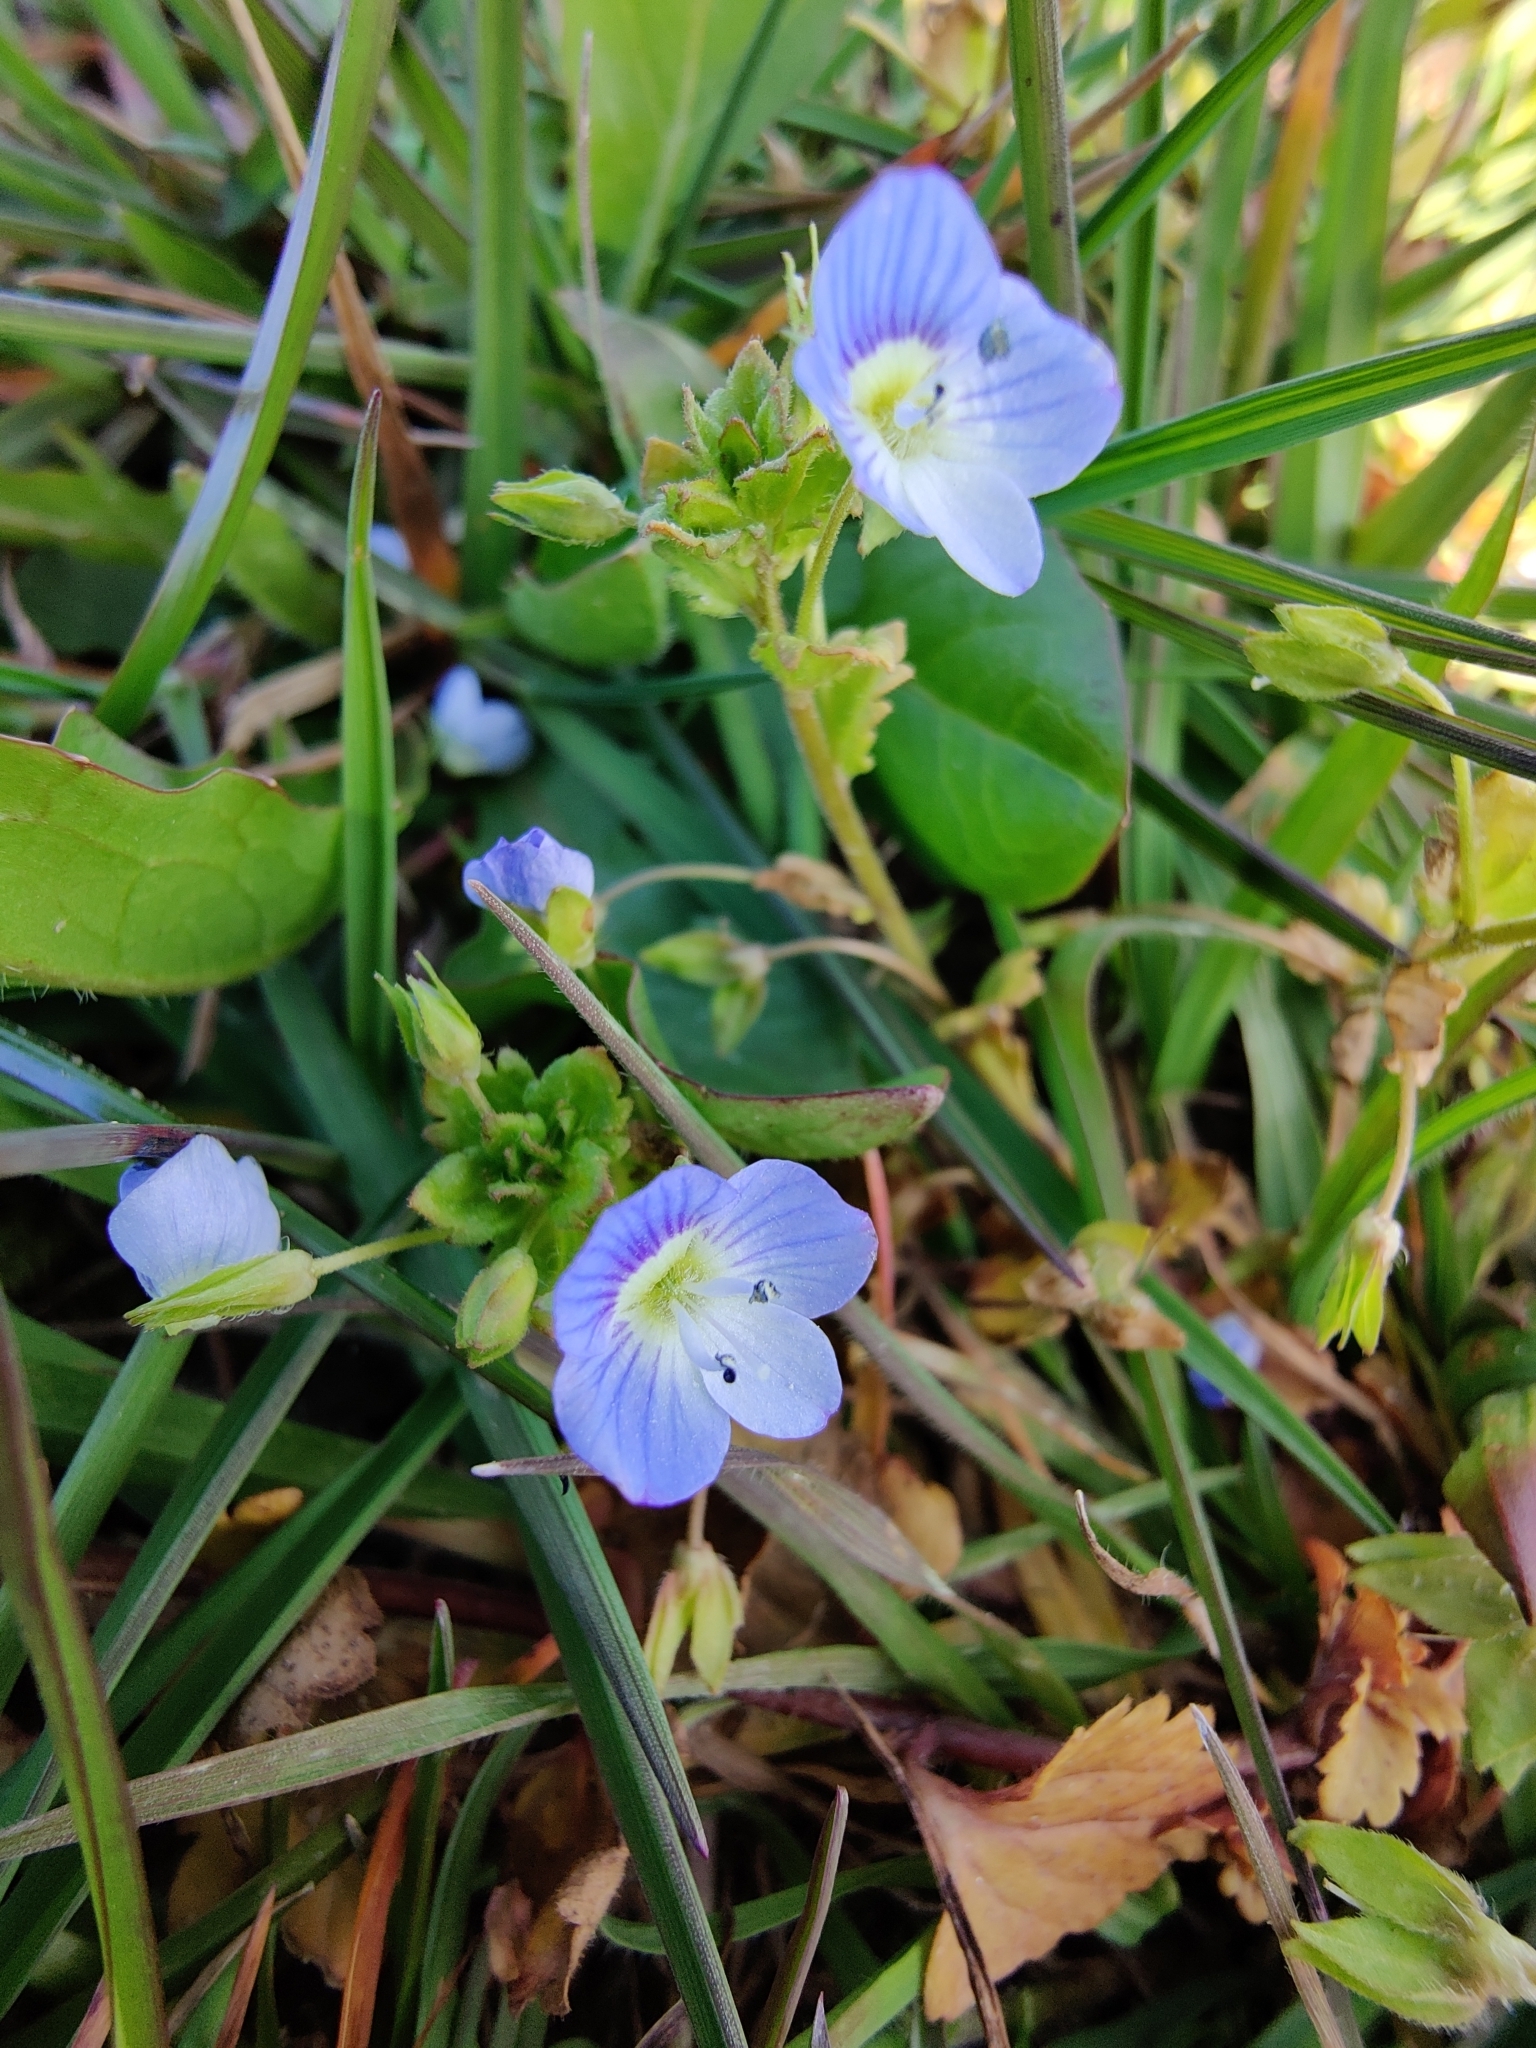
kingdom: Plantae
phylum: Tracheophyta
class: Magnoliopsida
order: Lamiales
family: Plantaginaceae
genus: Veronica
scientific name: Veronica persica
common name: Common field-speedwell
